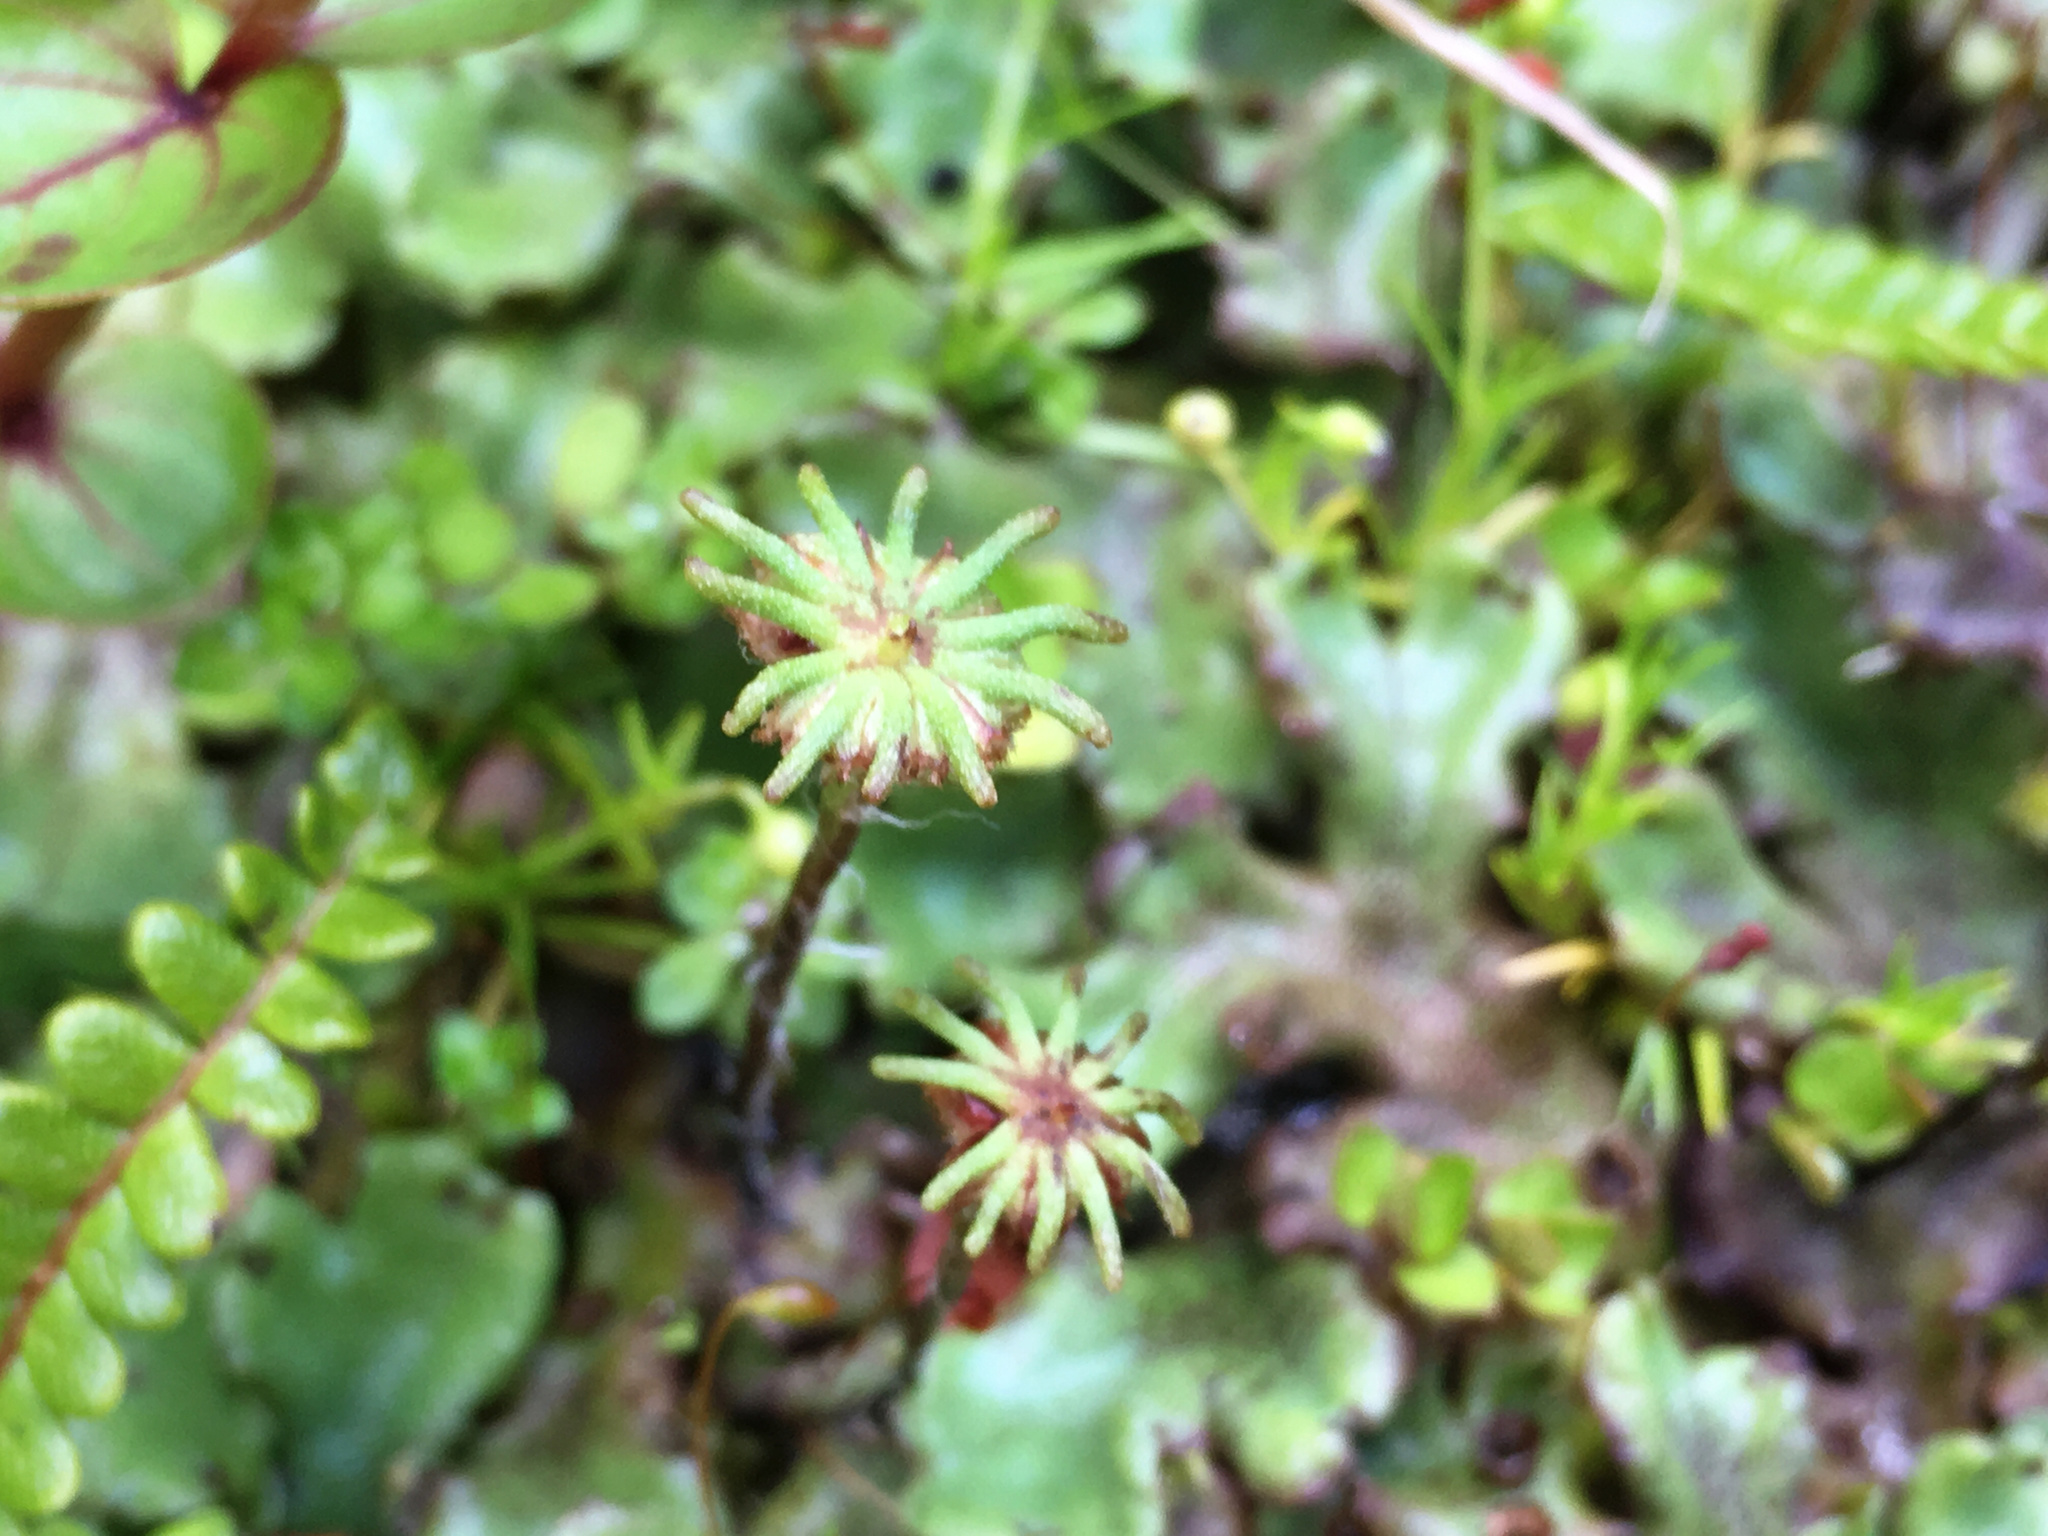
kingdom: Plantae
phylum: Marchantiophyta
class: Marchantiopsida
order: Marchantiales
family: Marchantiaceae
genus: Marchantia
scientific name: Marchantia foliacea
